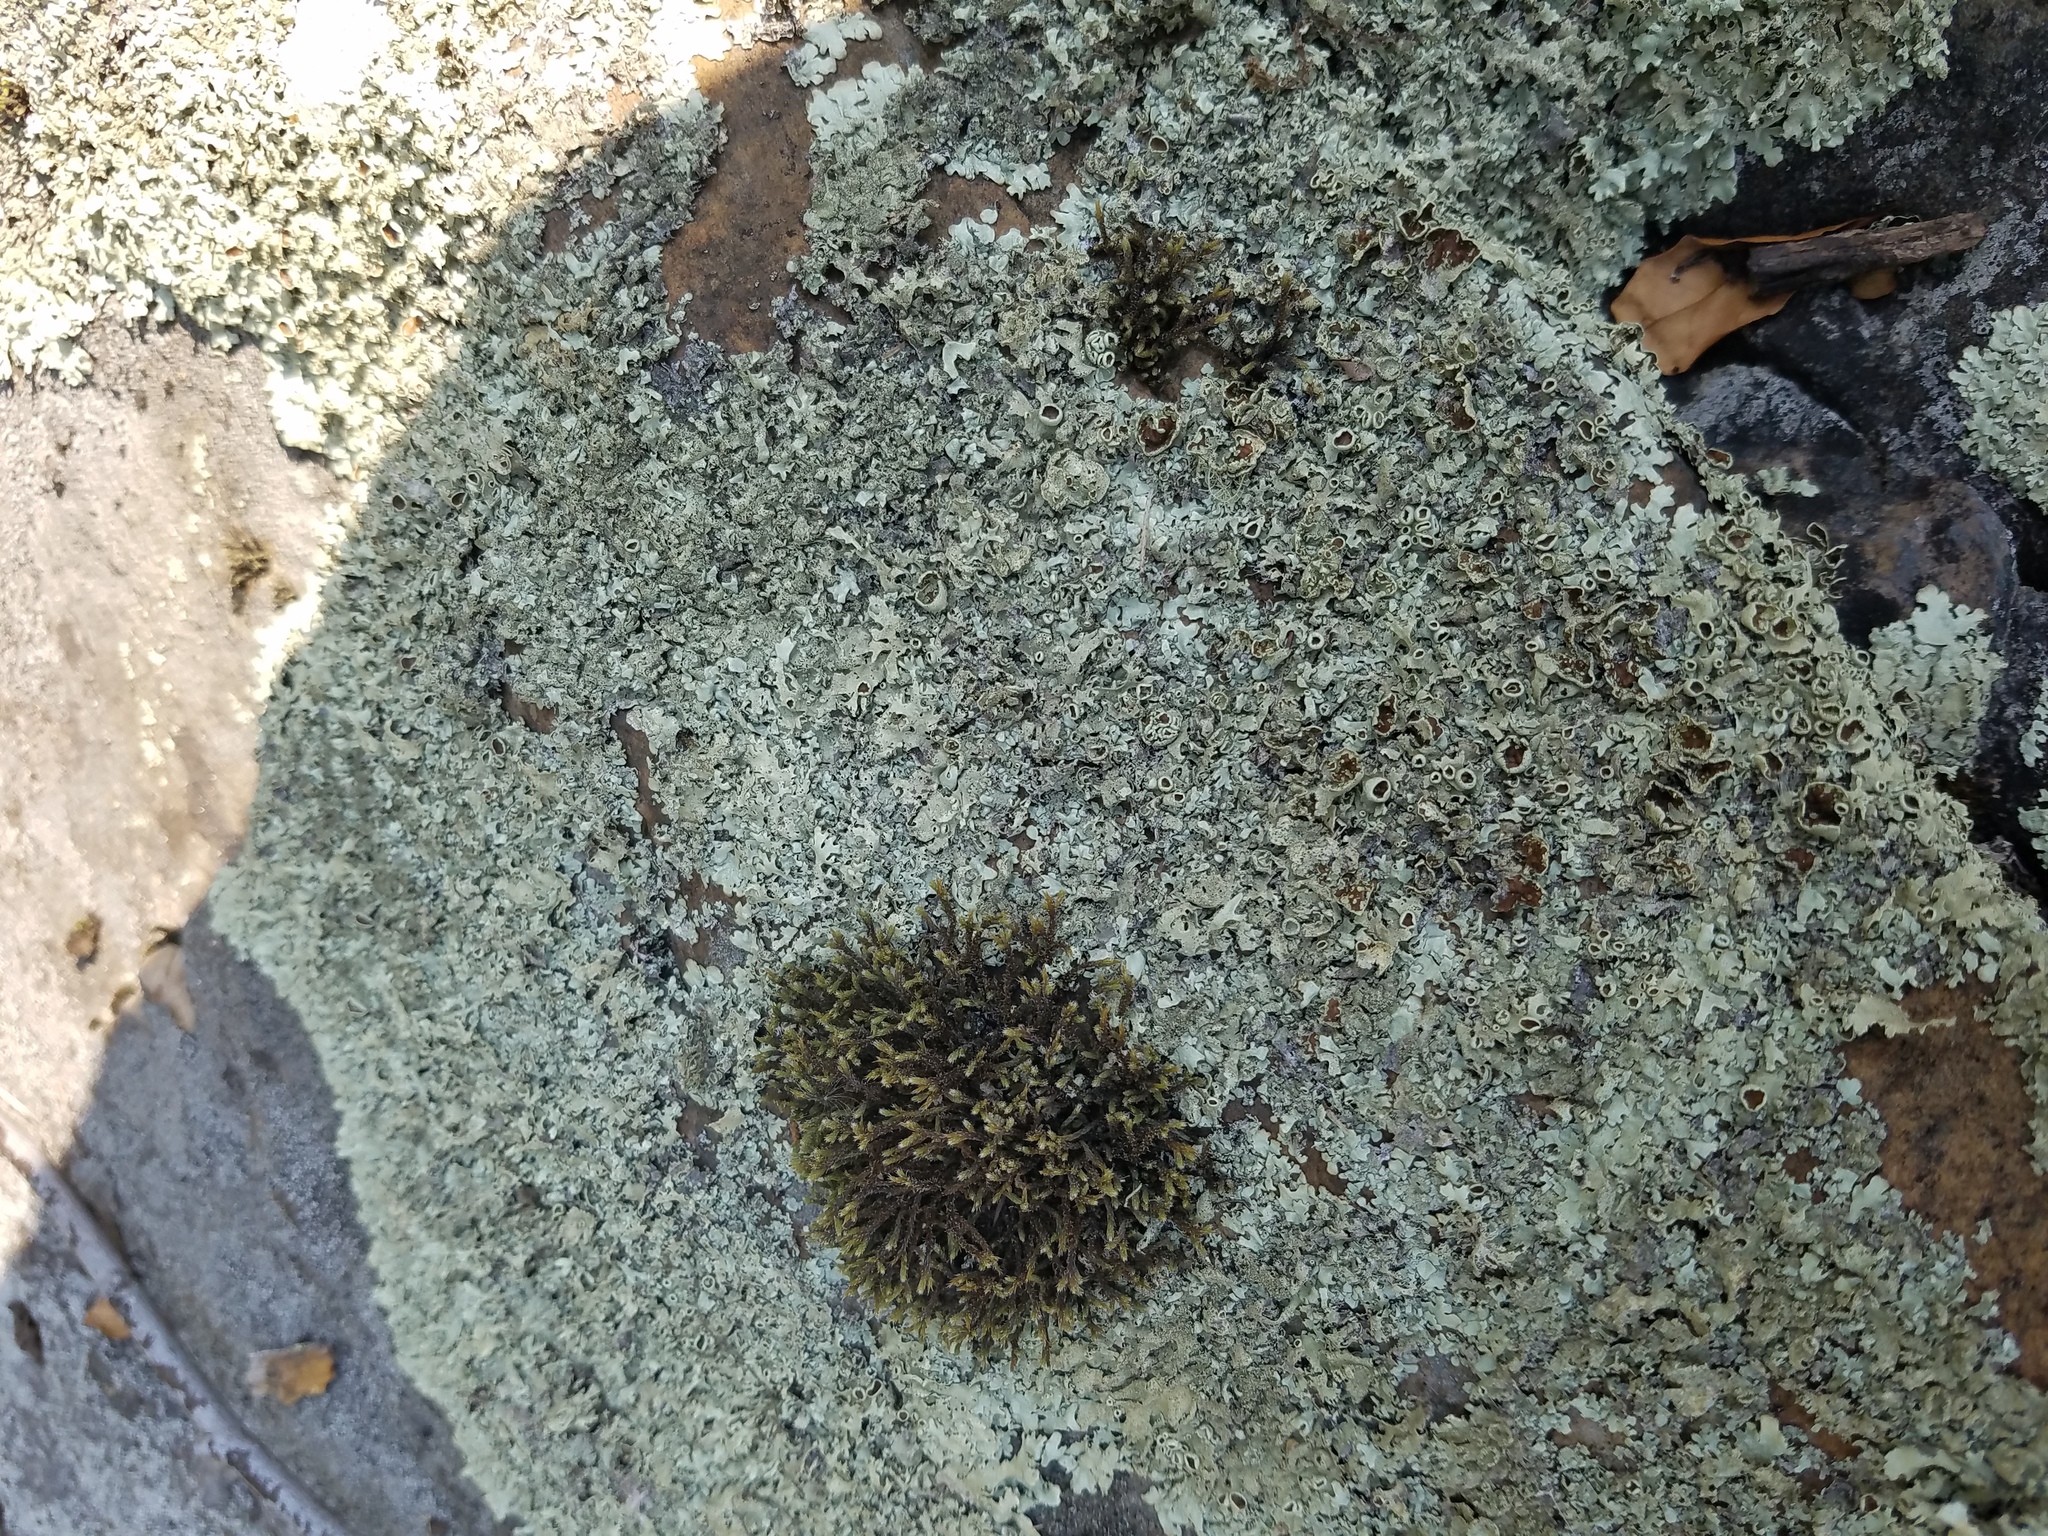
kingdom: Fungi
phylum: Ascomycota
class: Lecanoromycetes
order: Lecanorales
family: Parmeliaceae
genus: Xanthoparmelia
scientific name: Xanthoparmelia angustiphylla
